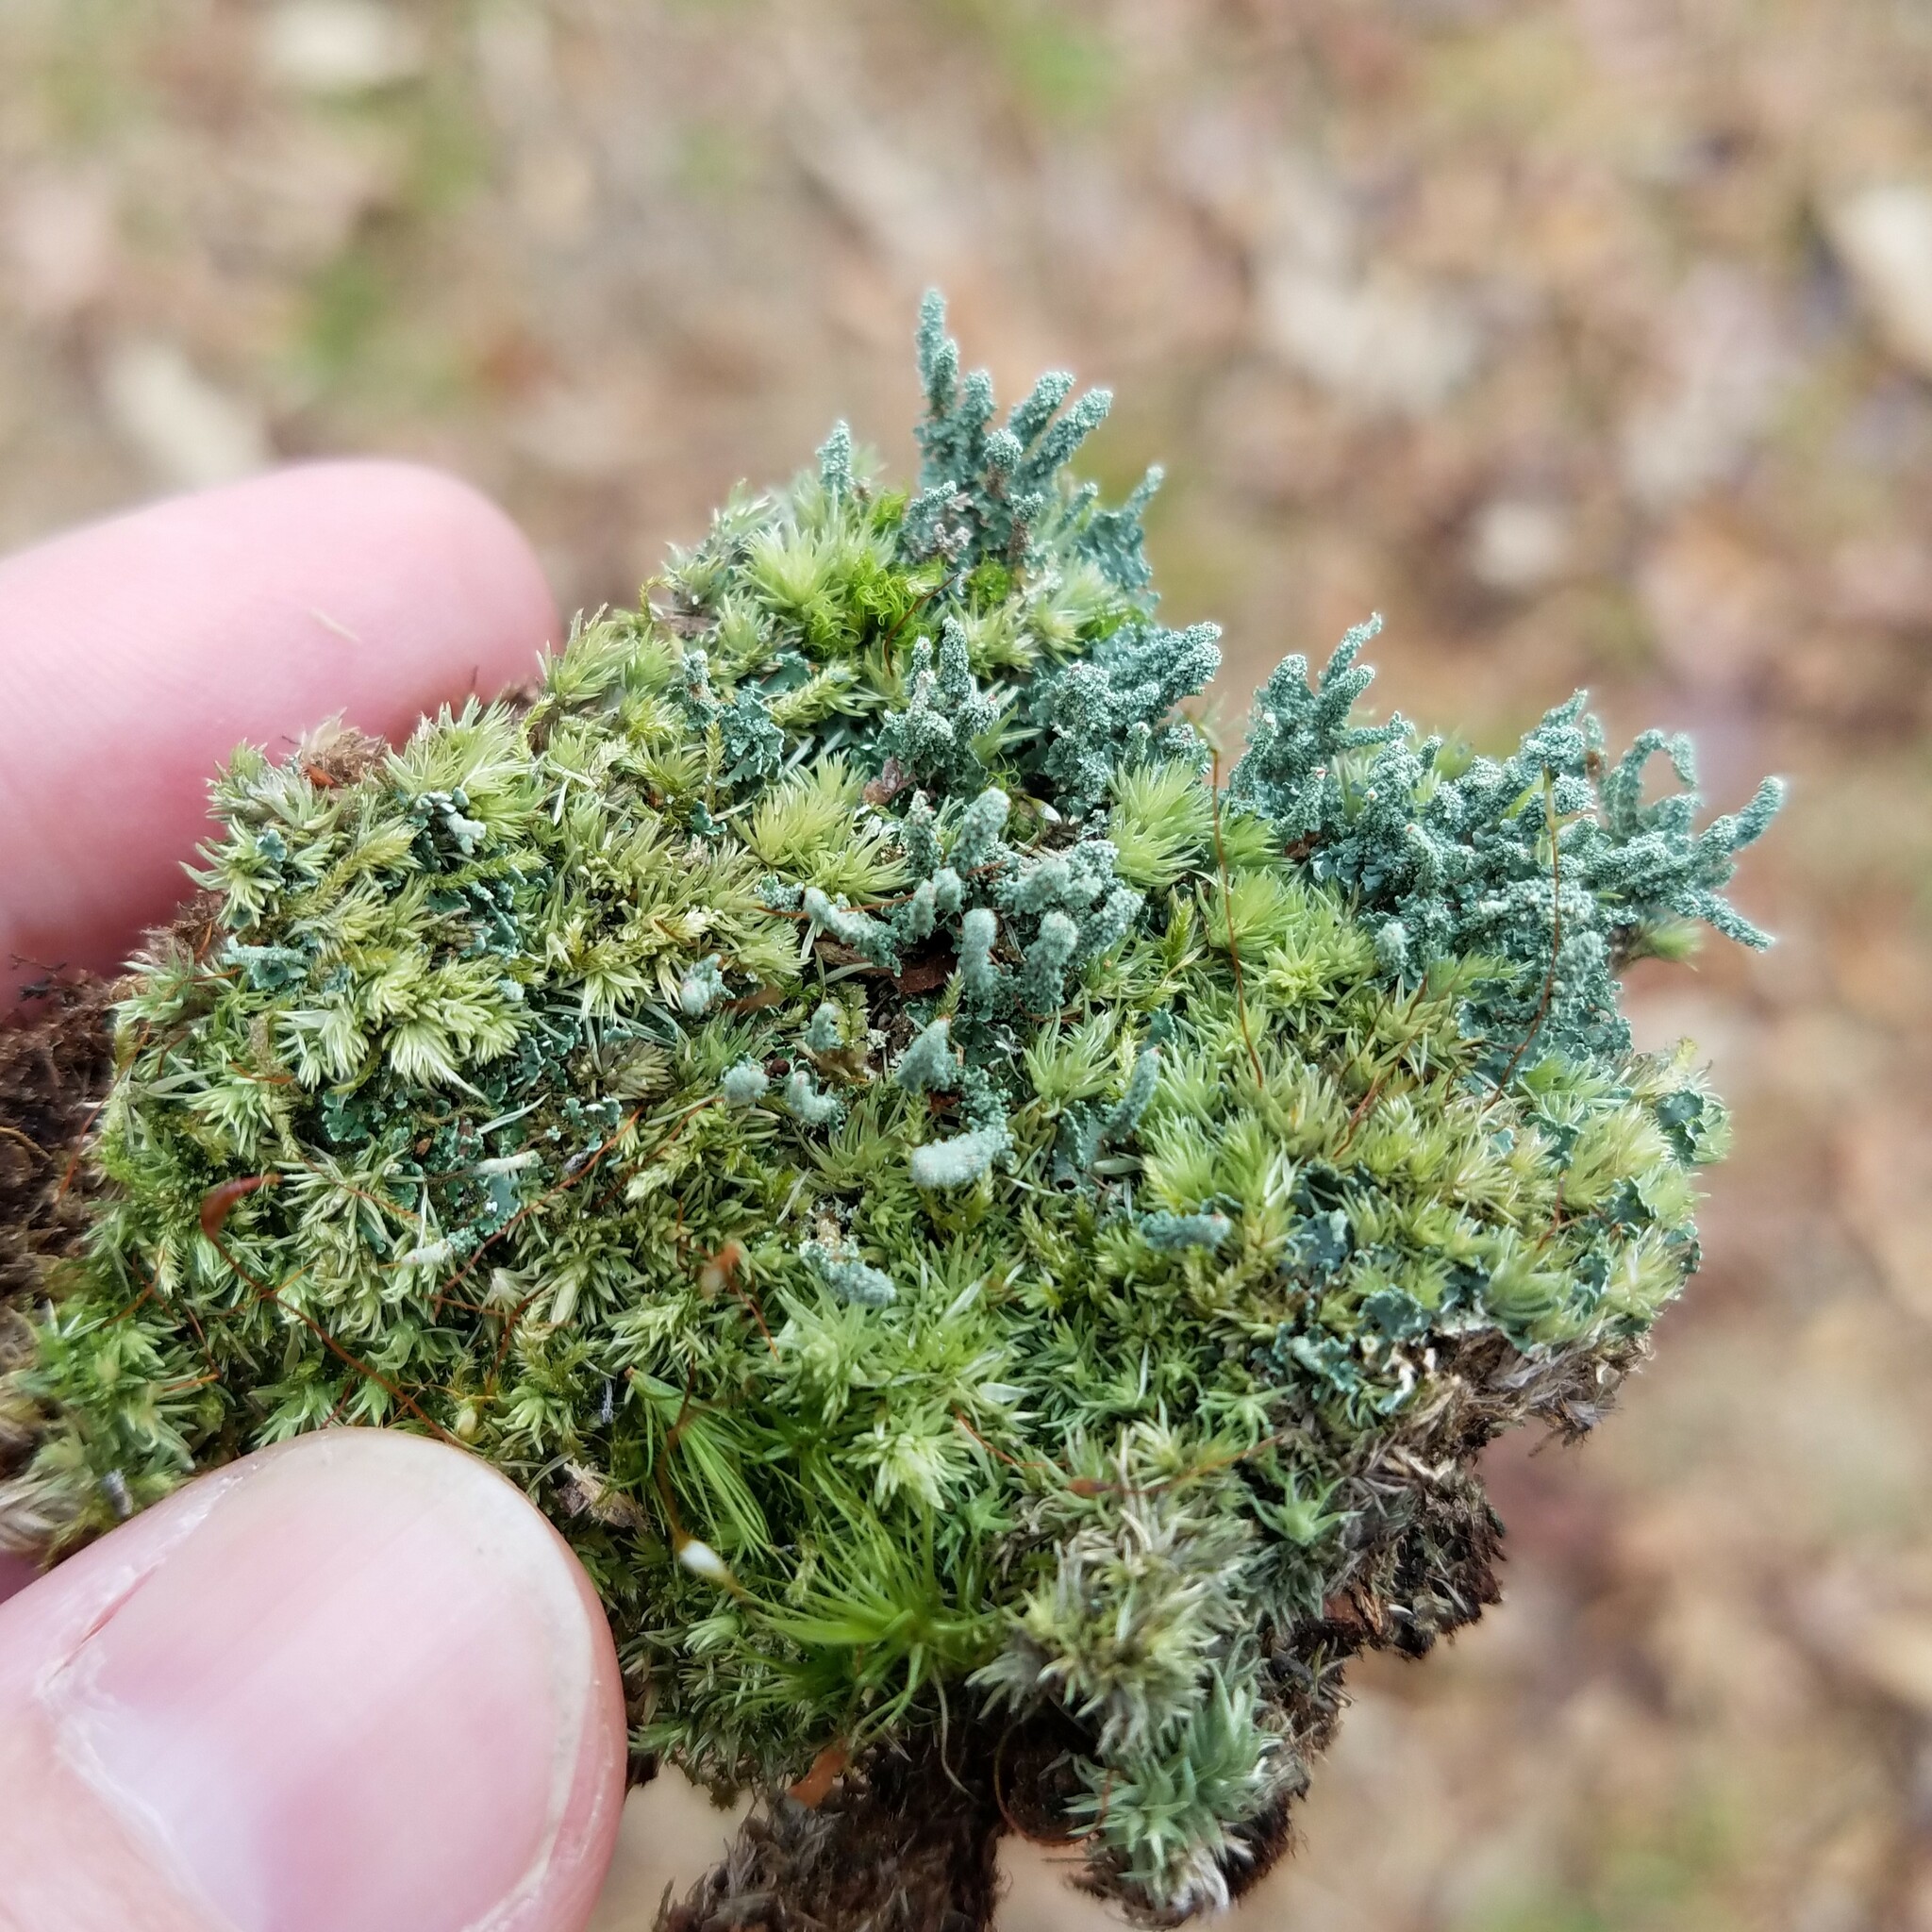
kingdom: Fungi
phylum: Ascomycota
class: Lecanoromycetes
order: Lecanorales
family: Cladoniaceae
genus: Cladonia
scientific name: Cladonia didyma
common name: Southern soldiers
